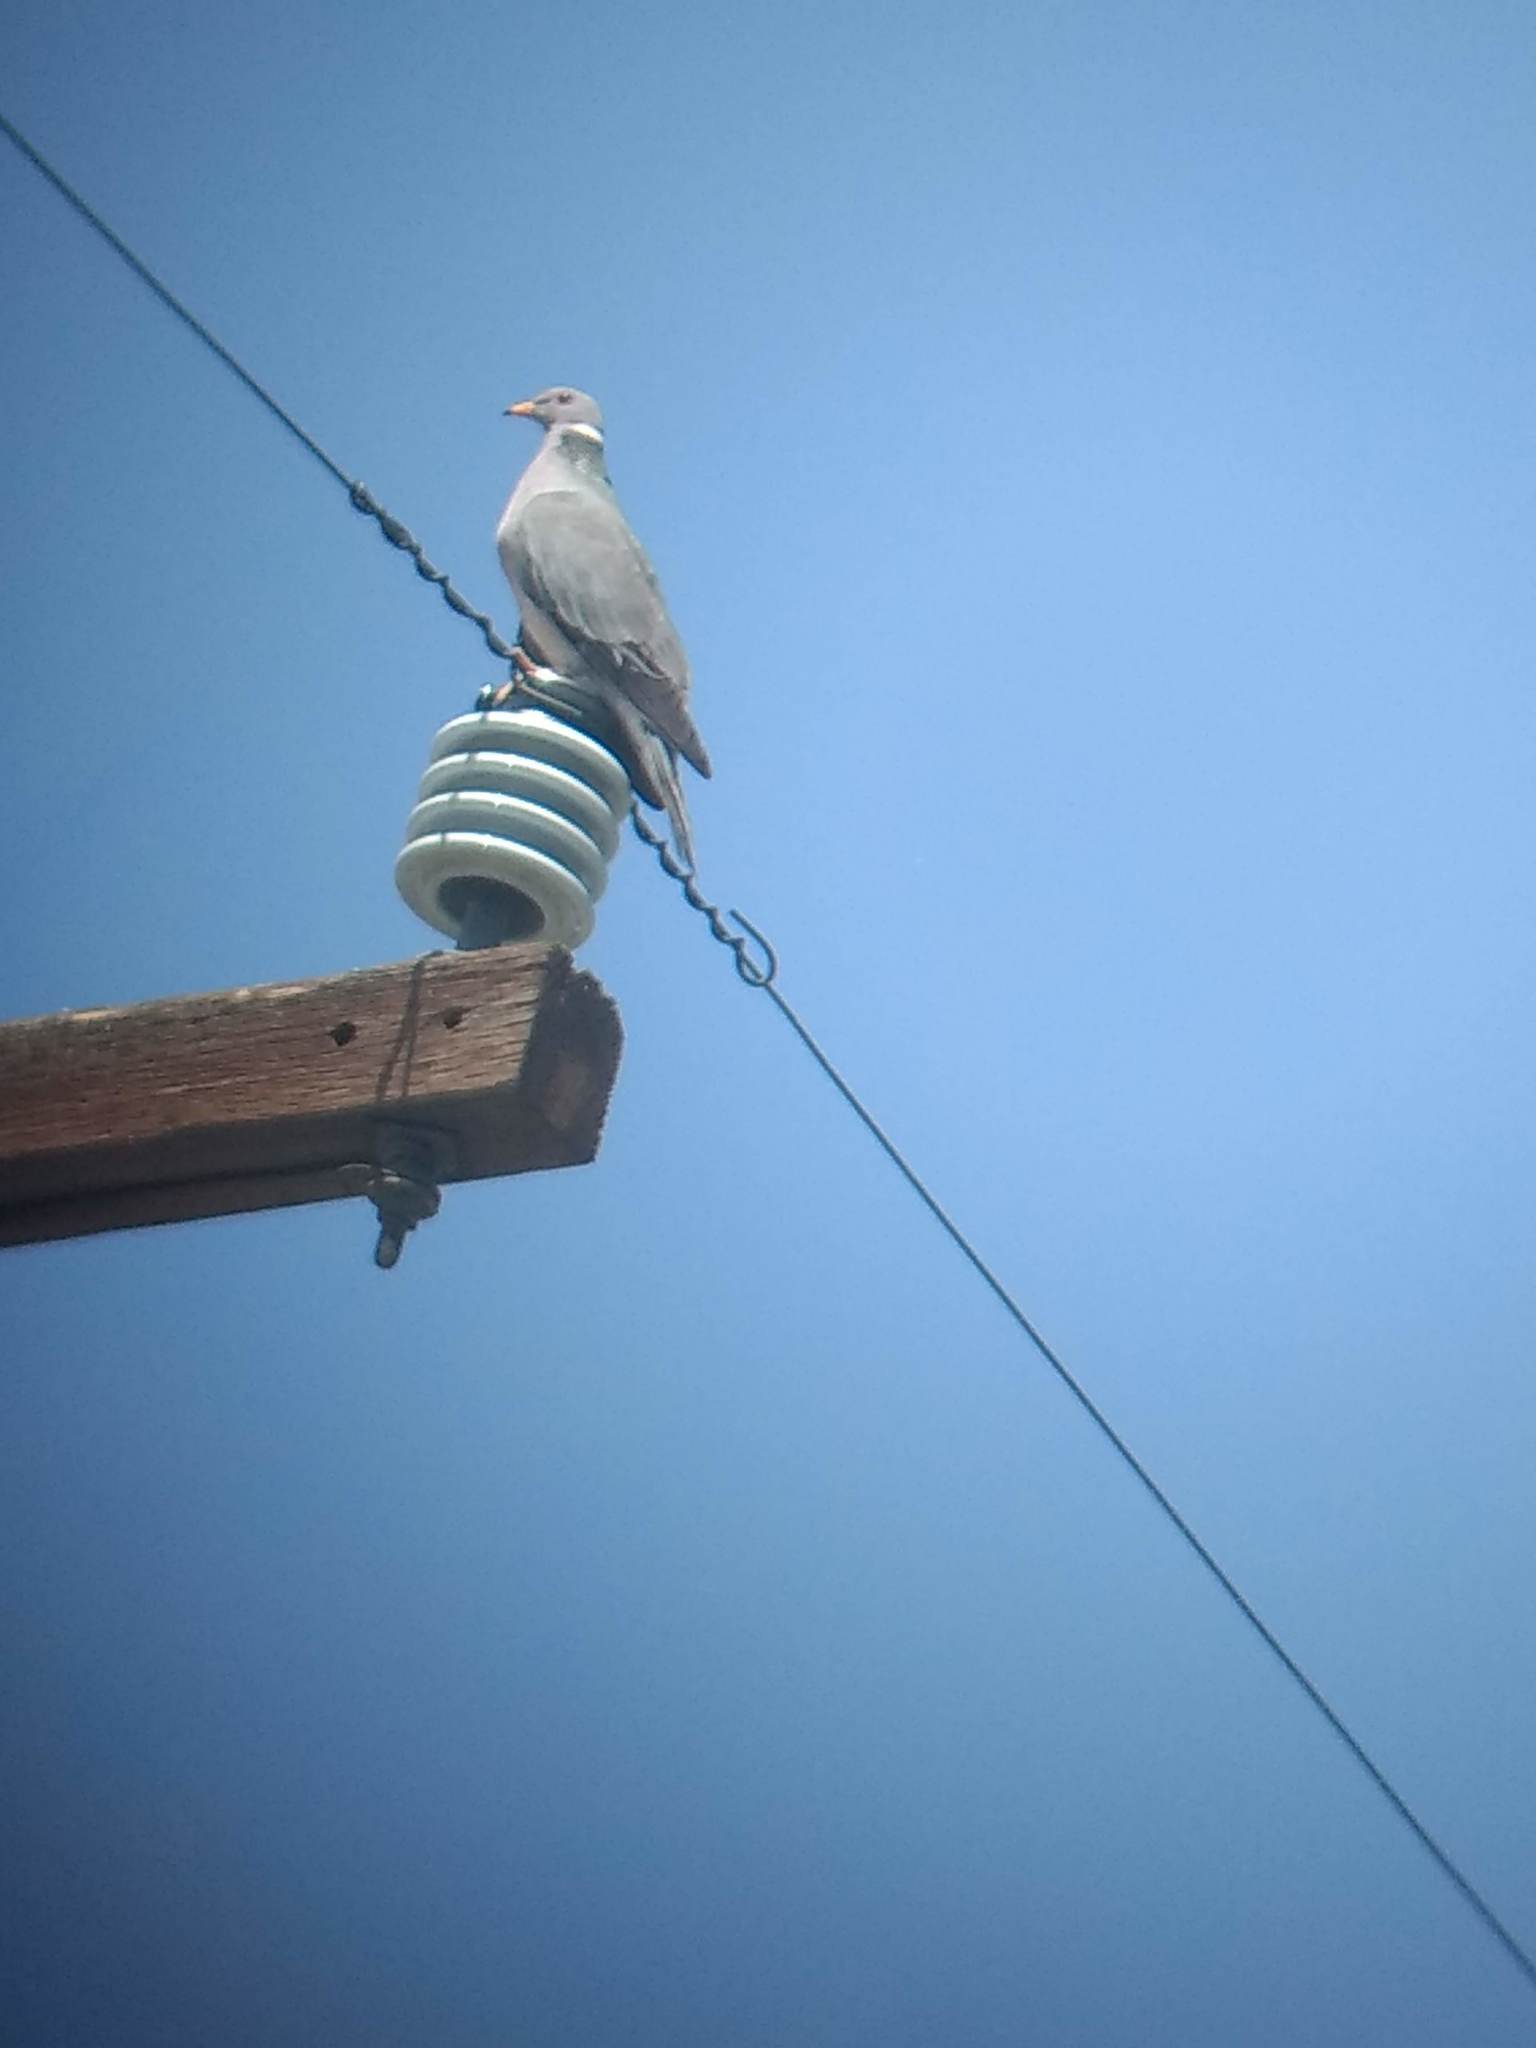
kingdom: Animalia
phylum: Chordata
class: Aves
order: Columbiformes
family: Columbidae
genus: Patagioenas
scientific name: Patagioenas fasciata
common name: Band-tailed pigeon
